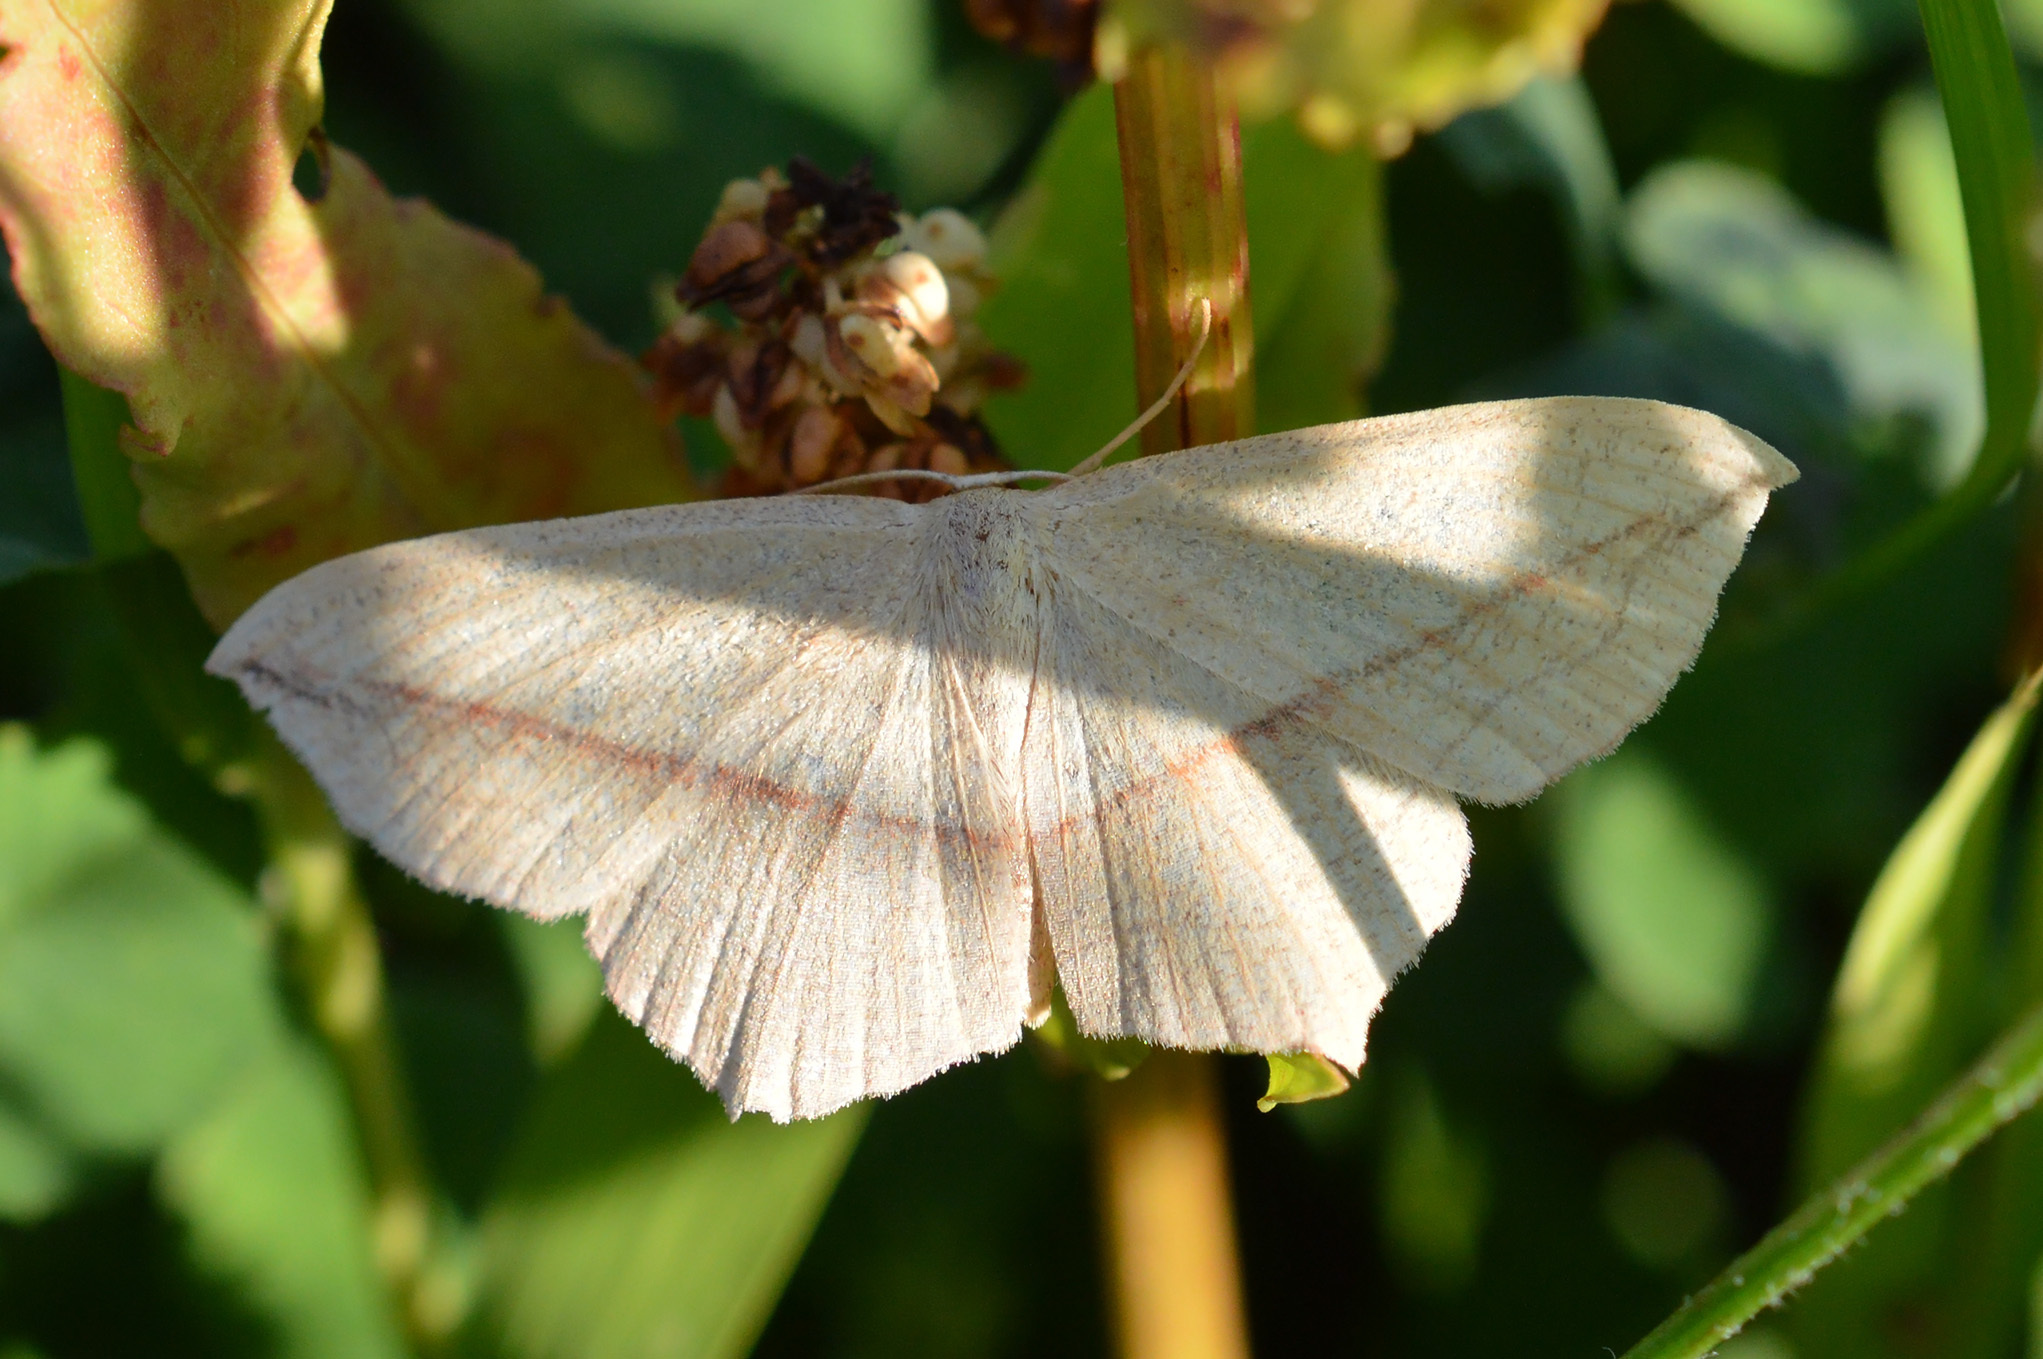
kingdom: Animalia
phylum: Arthropoda
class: Insecta
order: Lepidoptera
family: Geometridae
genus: Timandra
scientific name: Timandra comae
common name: Blood-vein
